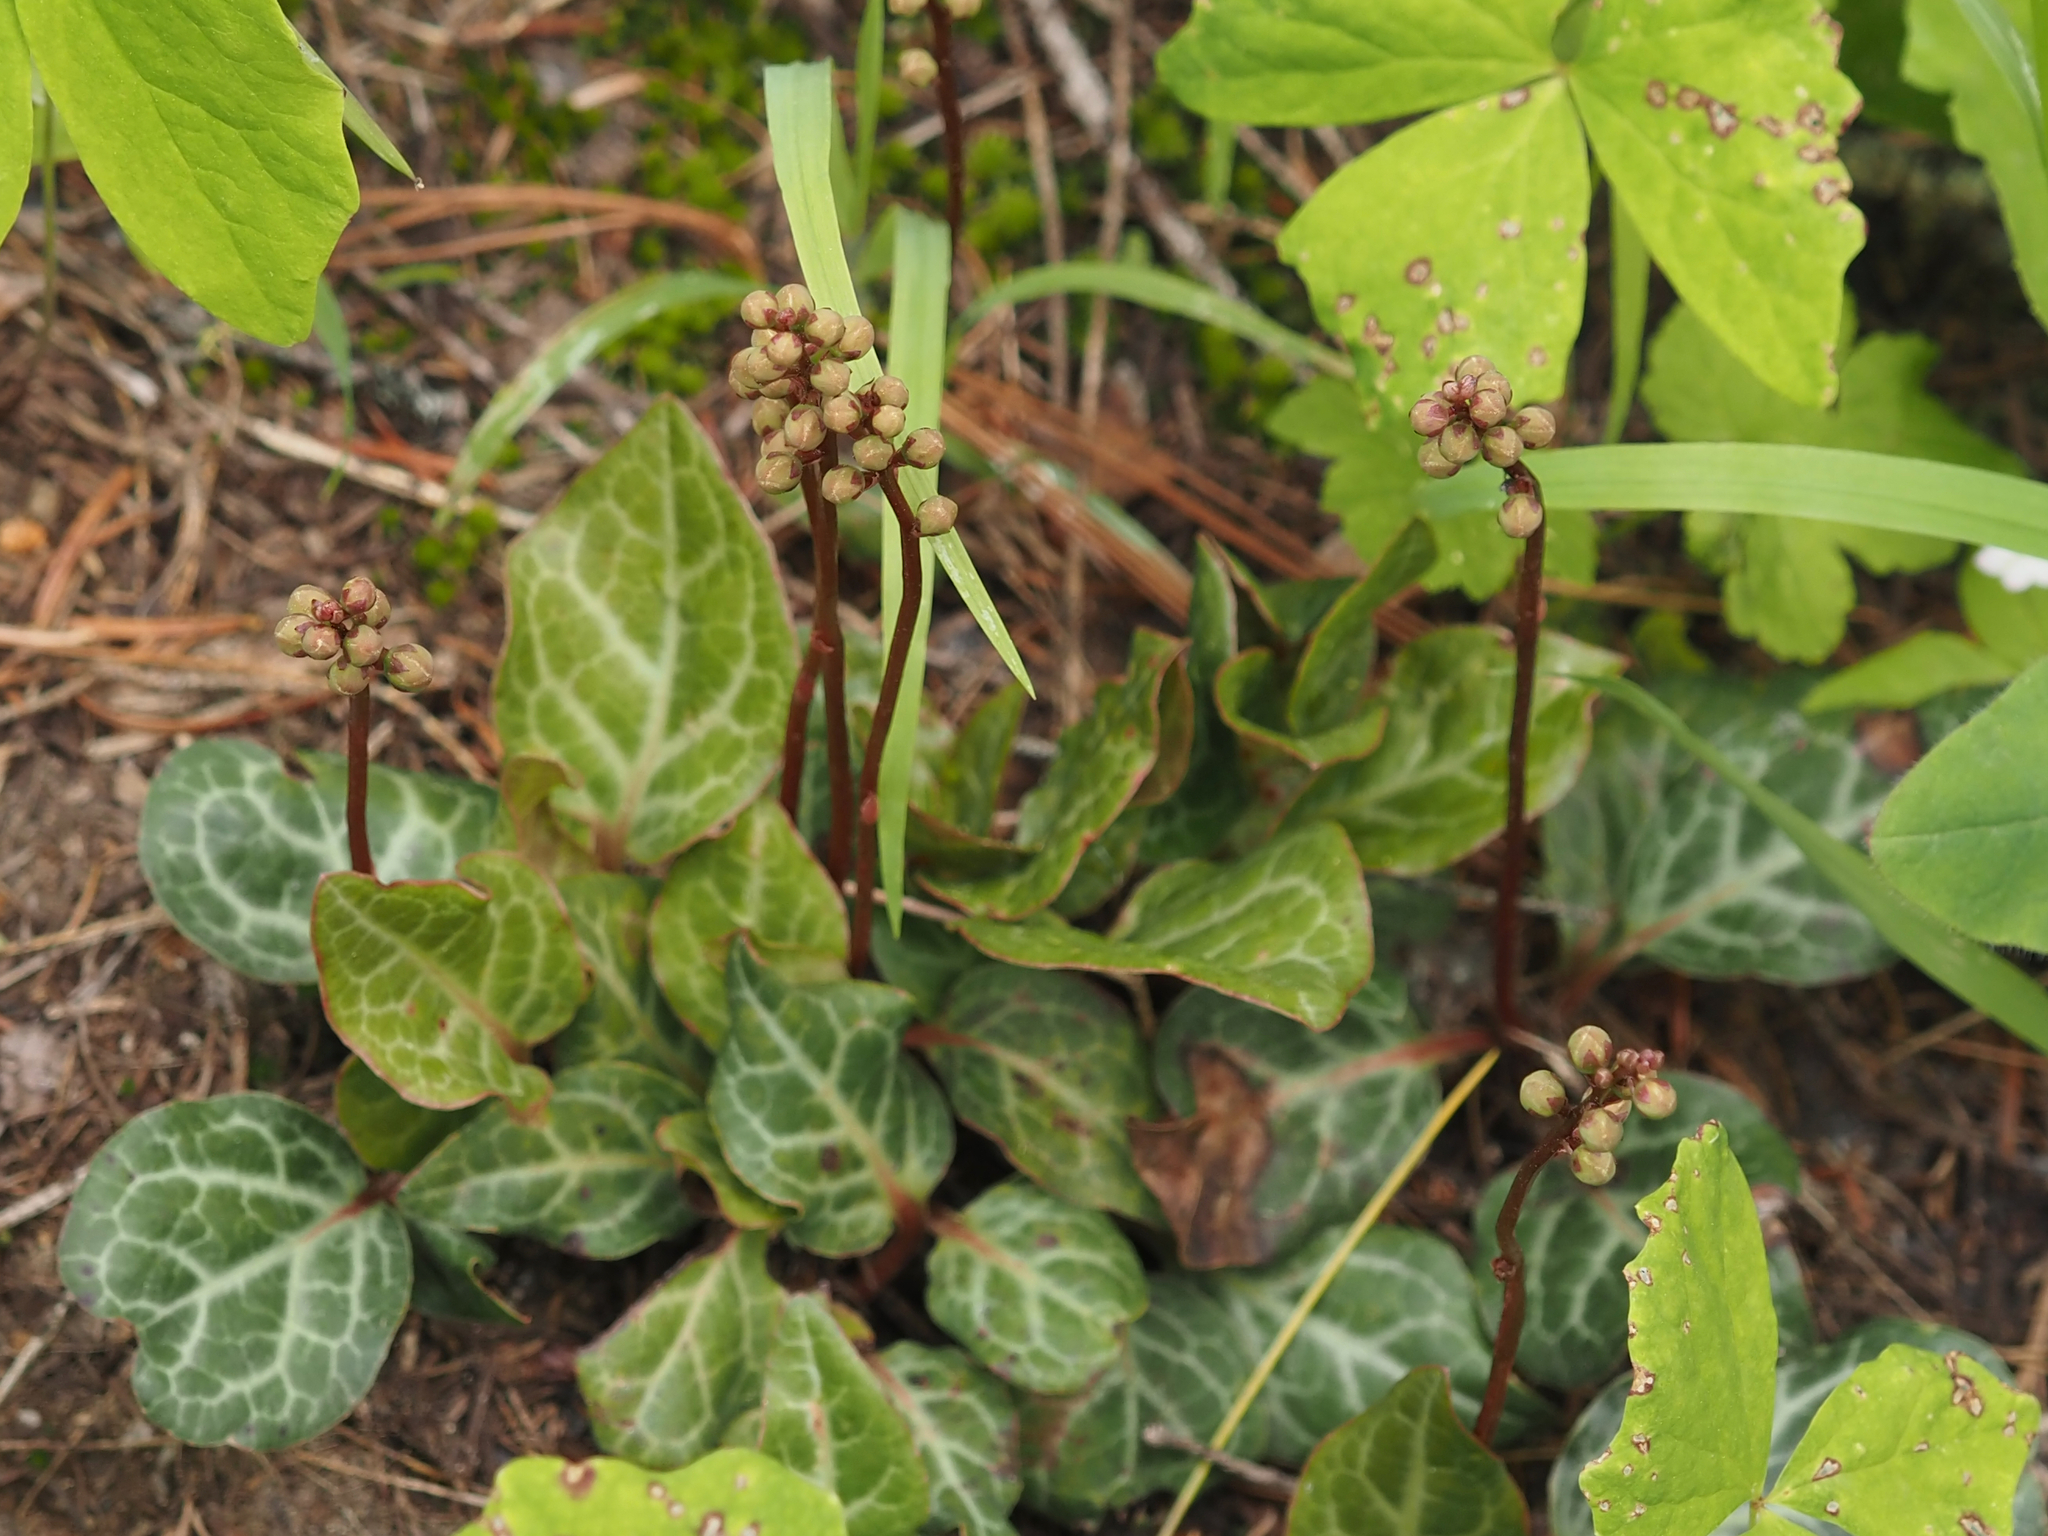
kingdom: Plantae
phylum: Tracheophyta
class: Magnoliopsida
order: Ericales
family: Ericaceae
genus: Pyrola
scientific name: Pyrola picta
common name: White-vein wintergreen
